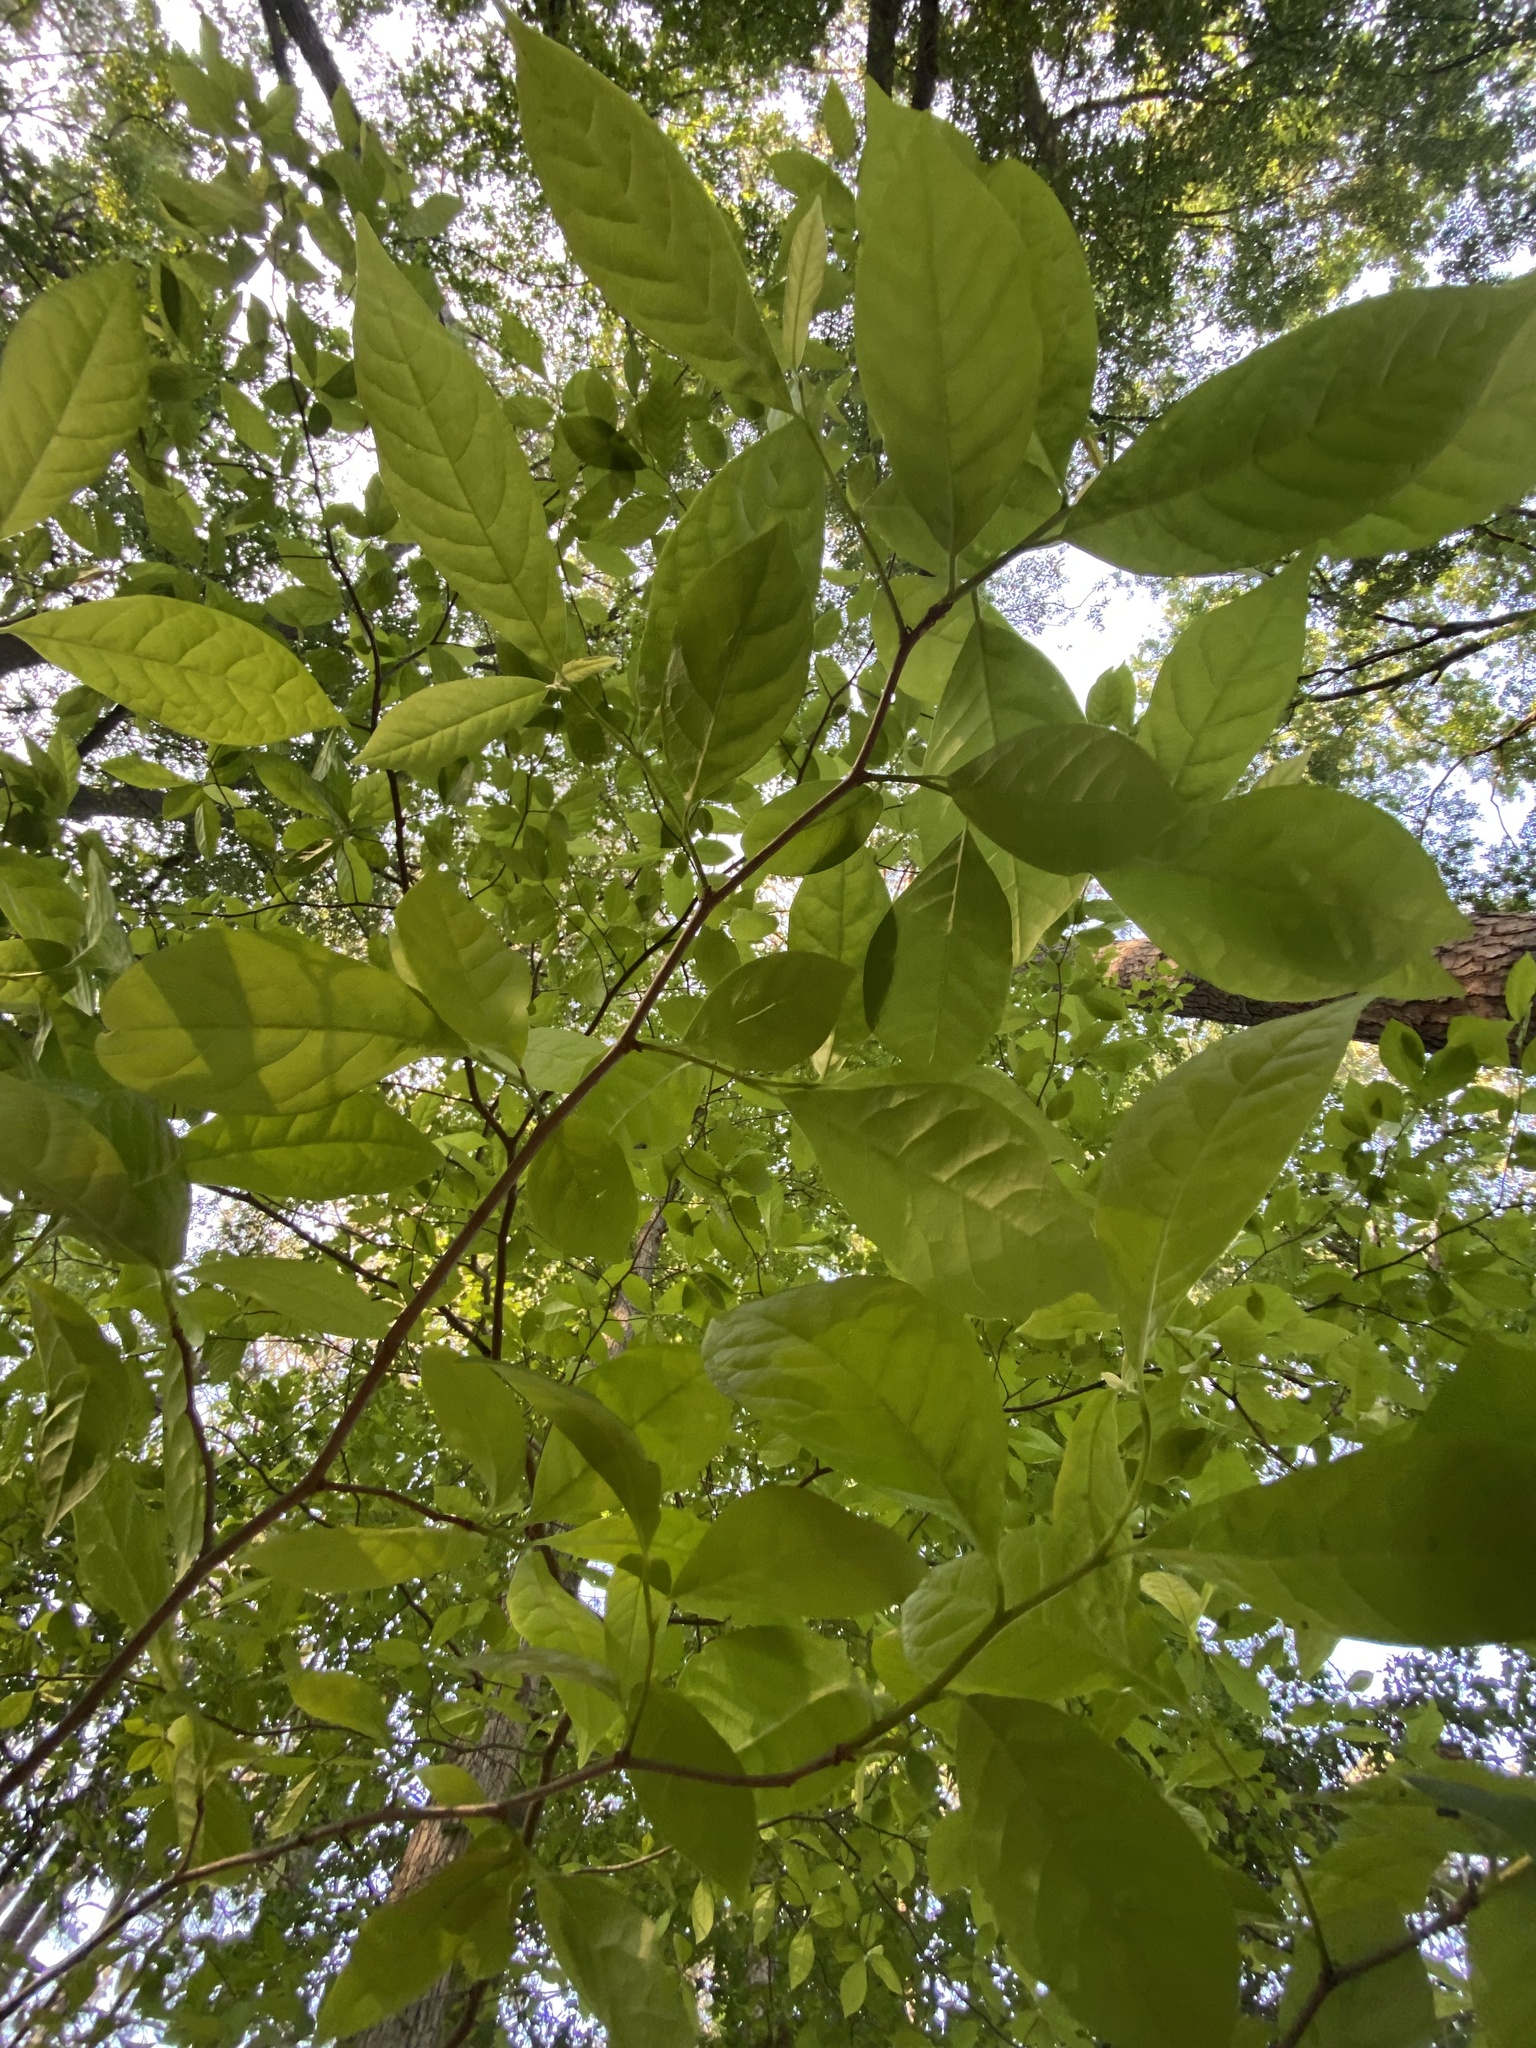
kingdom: Plantae
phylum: Tracheophyta
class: Magnoliopsida
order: Cornales
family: Nyssaceae
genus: Nyssa
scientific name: Nyssa sylvatica
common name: Black tupelo
